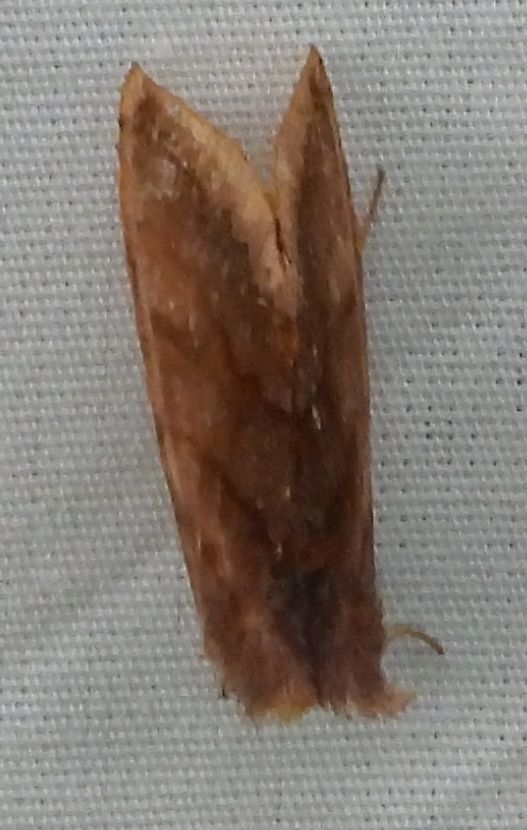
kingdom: Animalia
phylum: Arthropoda
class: Insecta
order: Lepidoptera
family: Noctuidae
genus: Allagrapha
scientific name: Allagrapha aerea
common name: Unspotted looper moth
